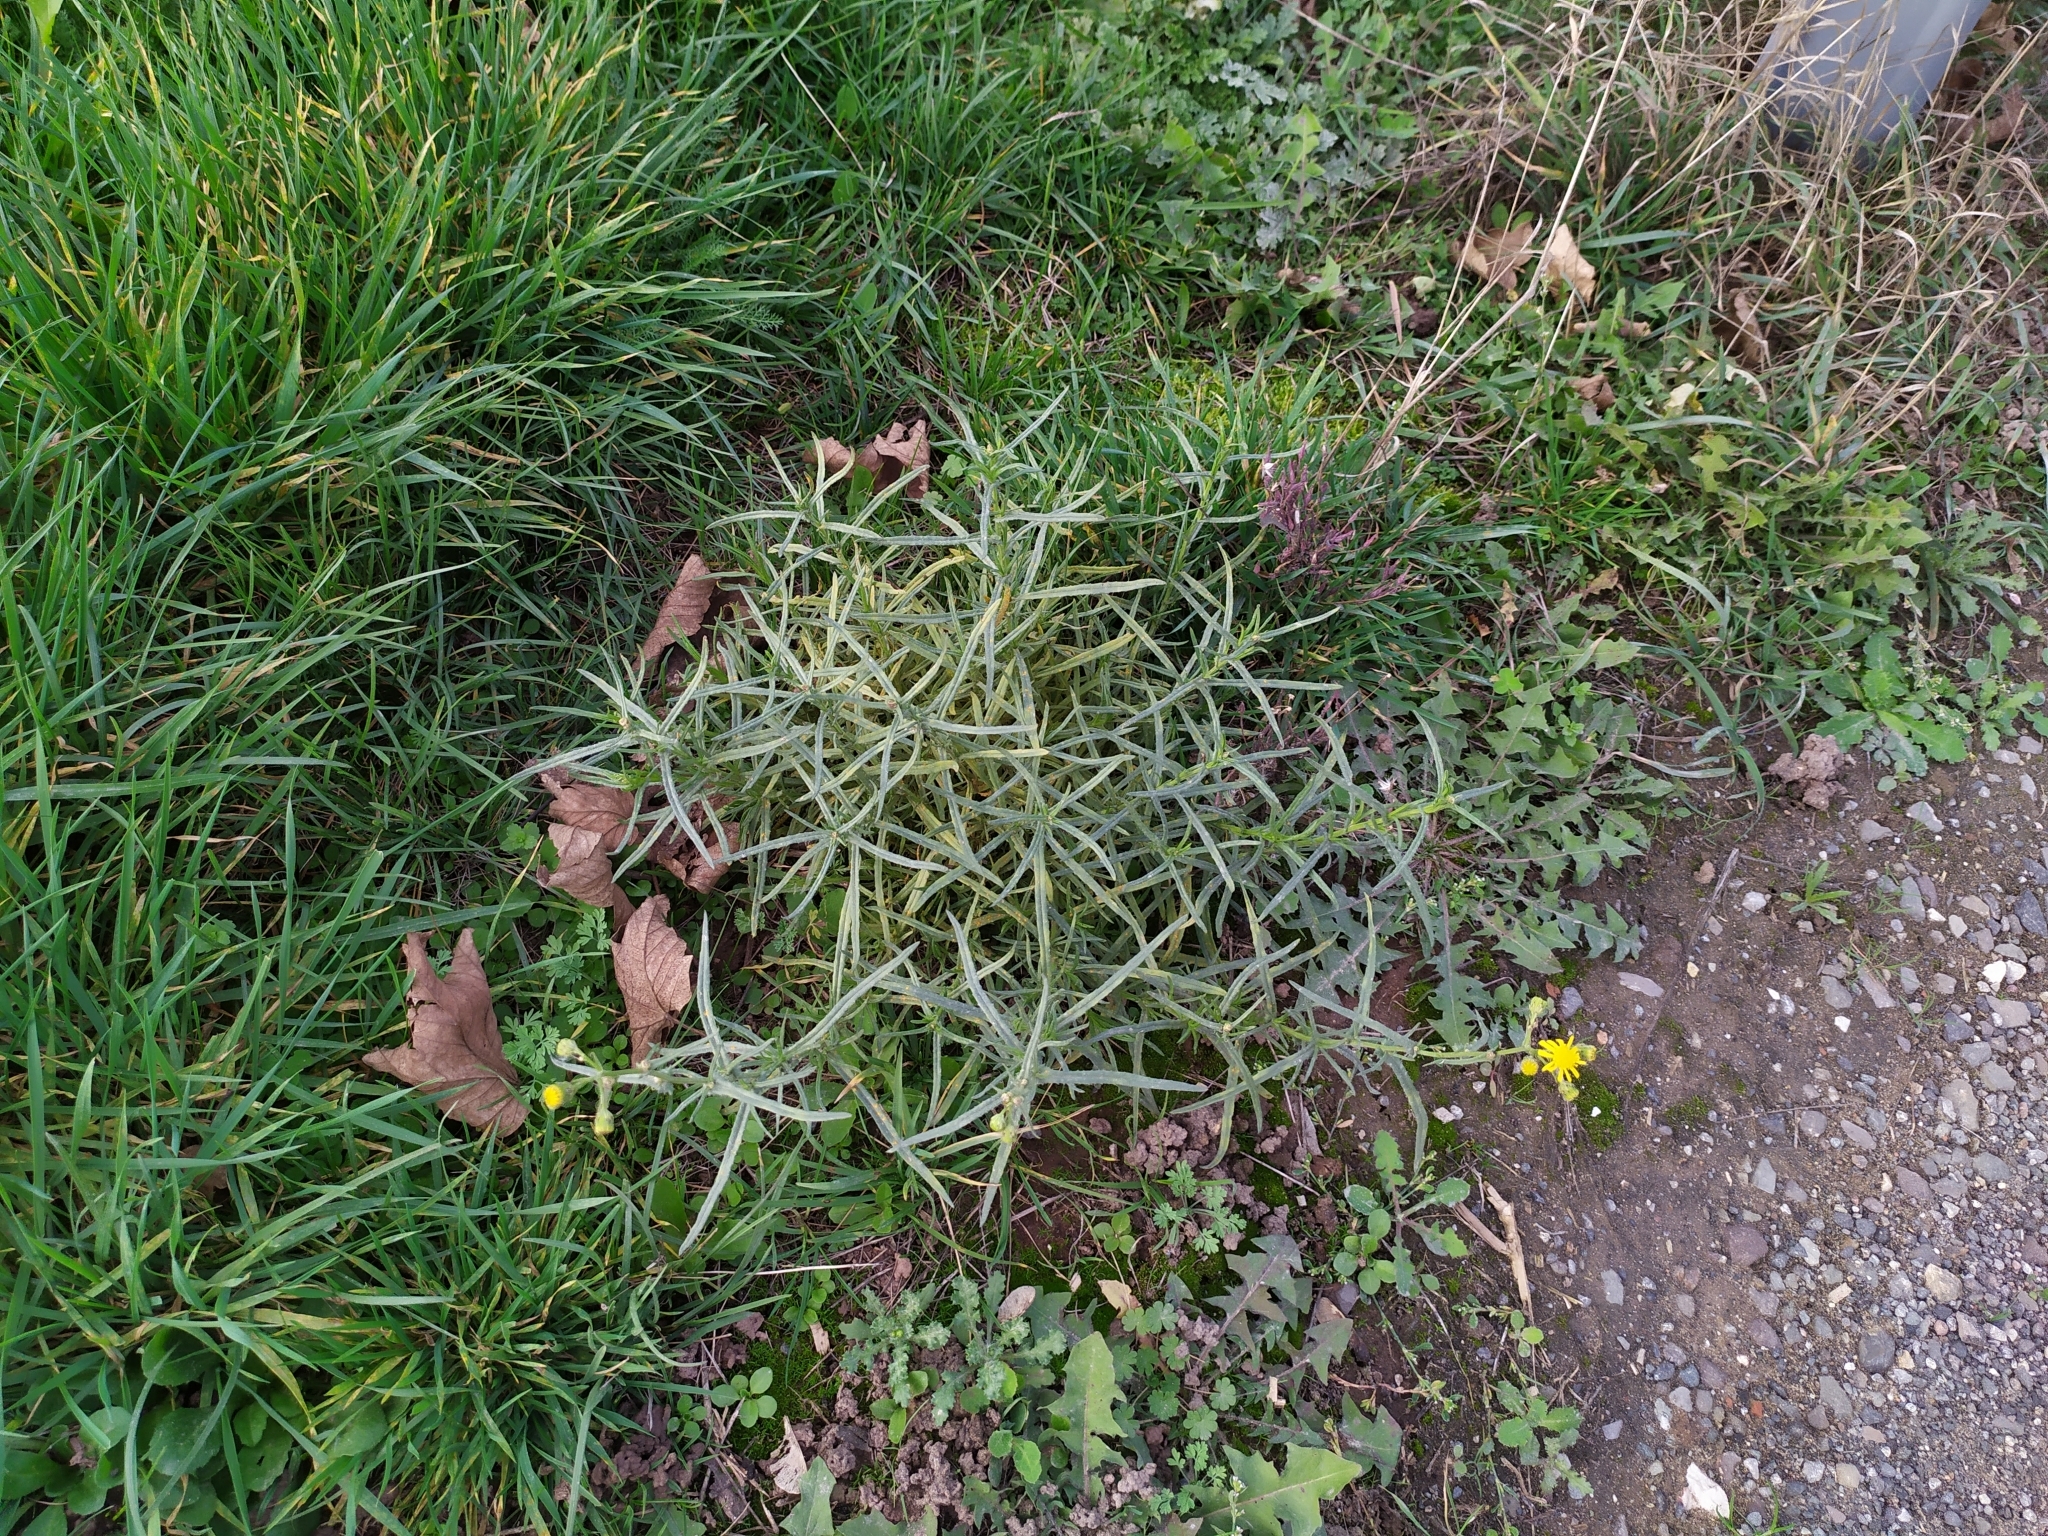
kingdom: Plantae
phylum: Tracheophyta
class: Magnoliopsida
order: Asterales
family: Asteraceae
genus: Senecio
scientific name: Senecio inaequidens
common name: Narrow-leaved ragwort
